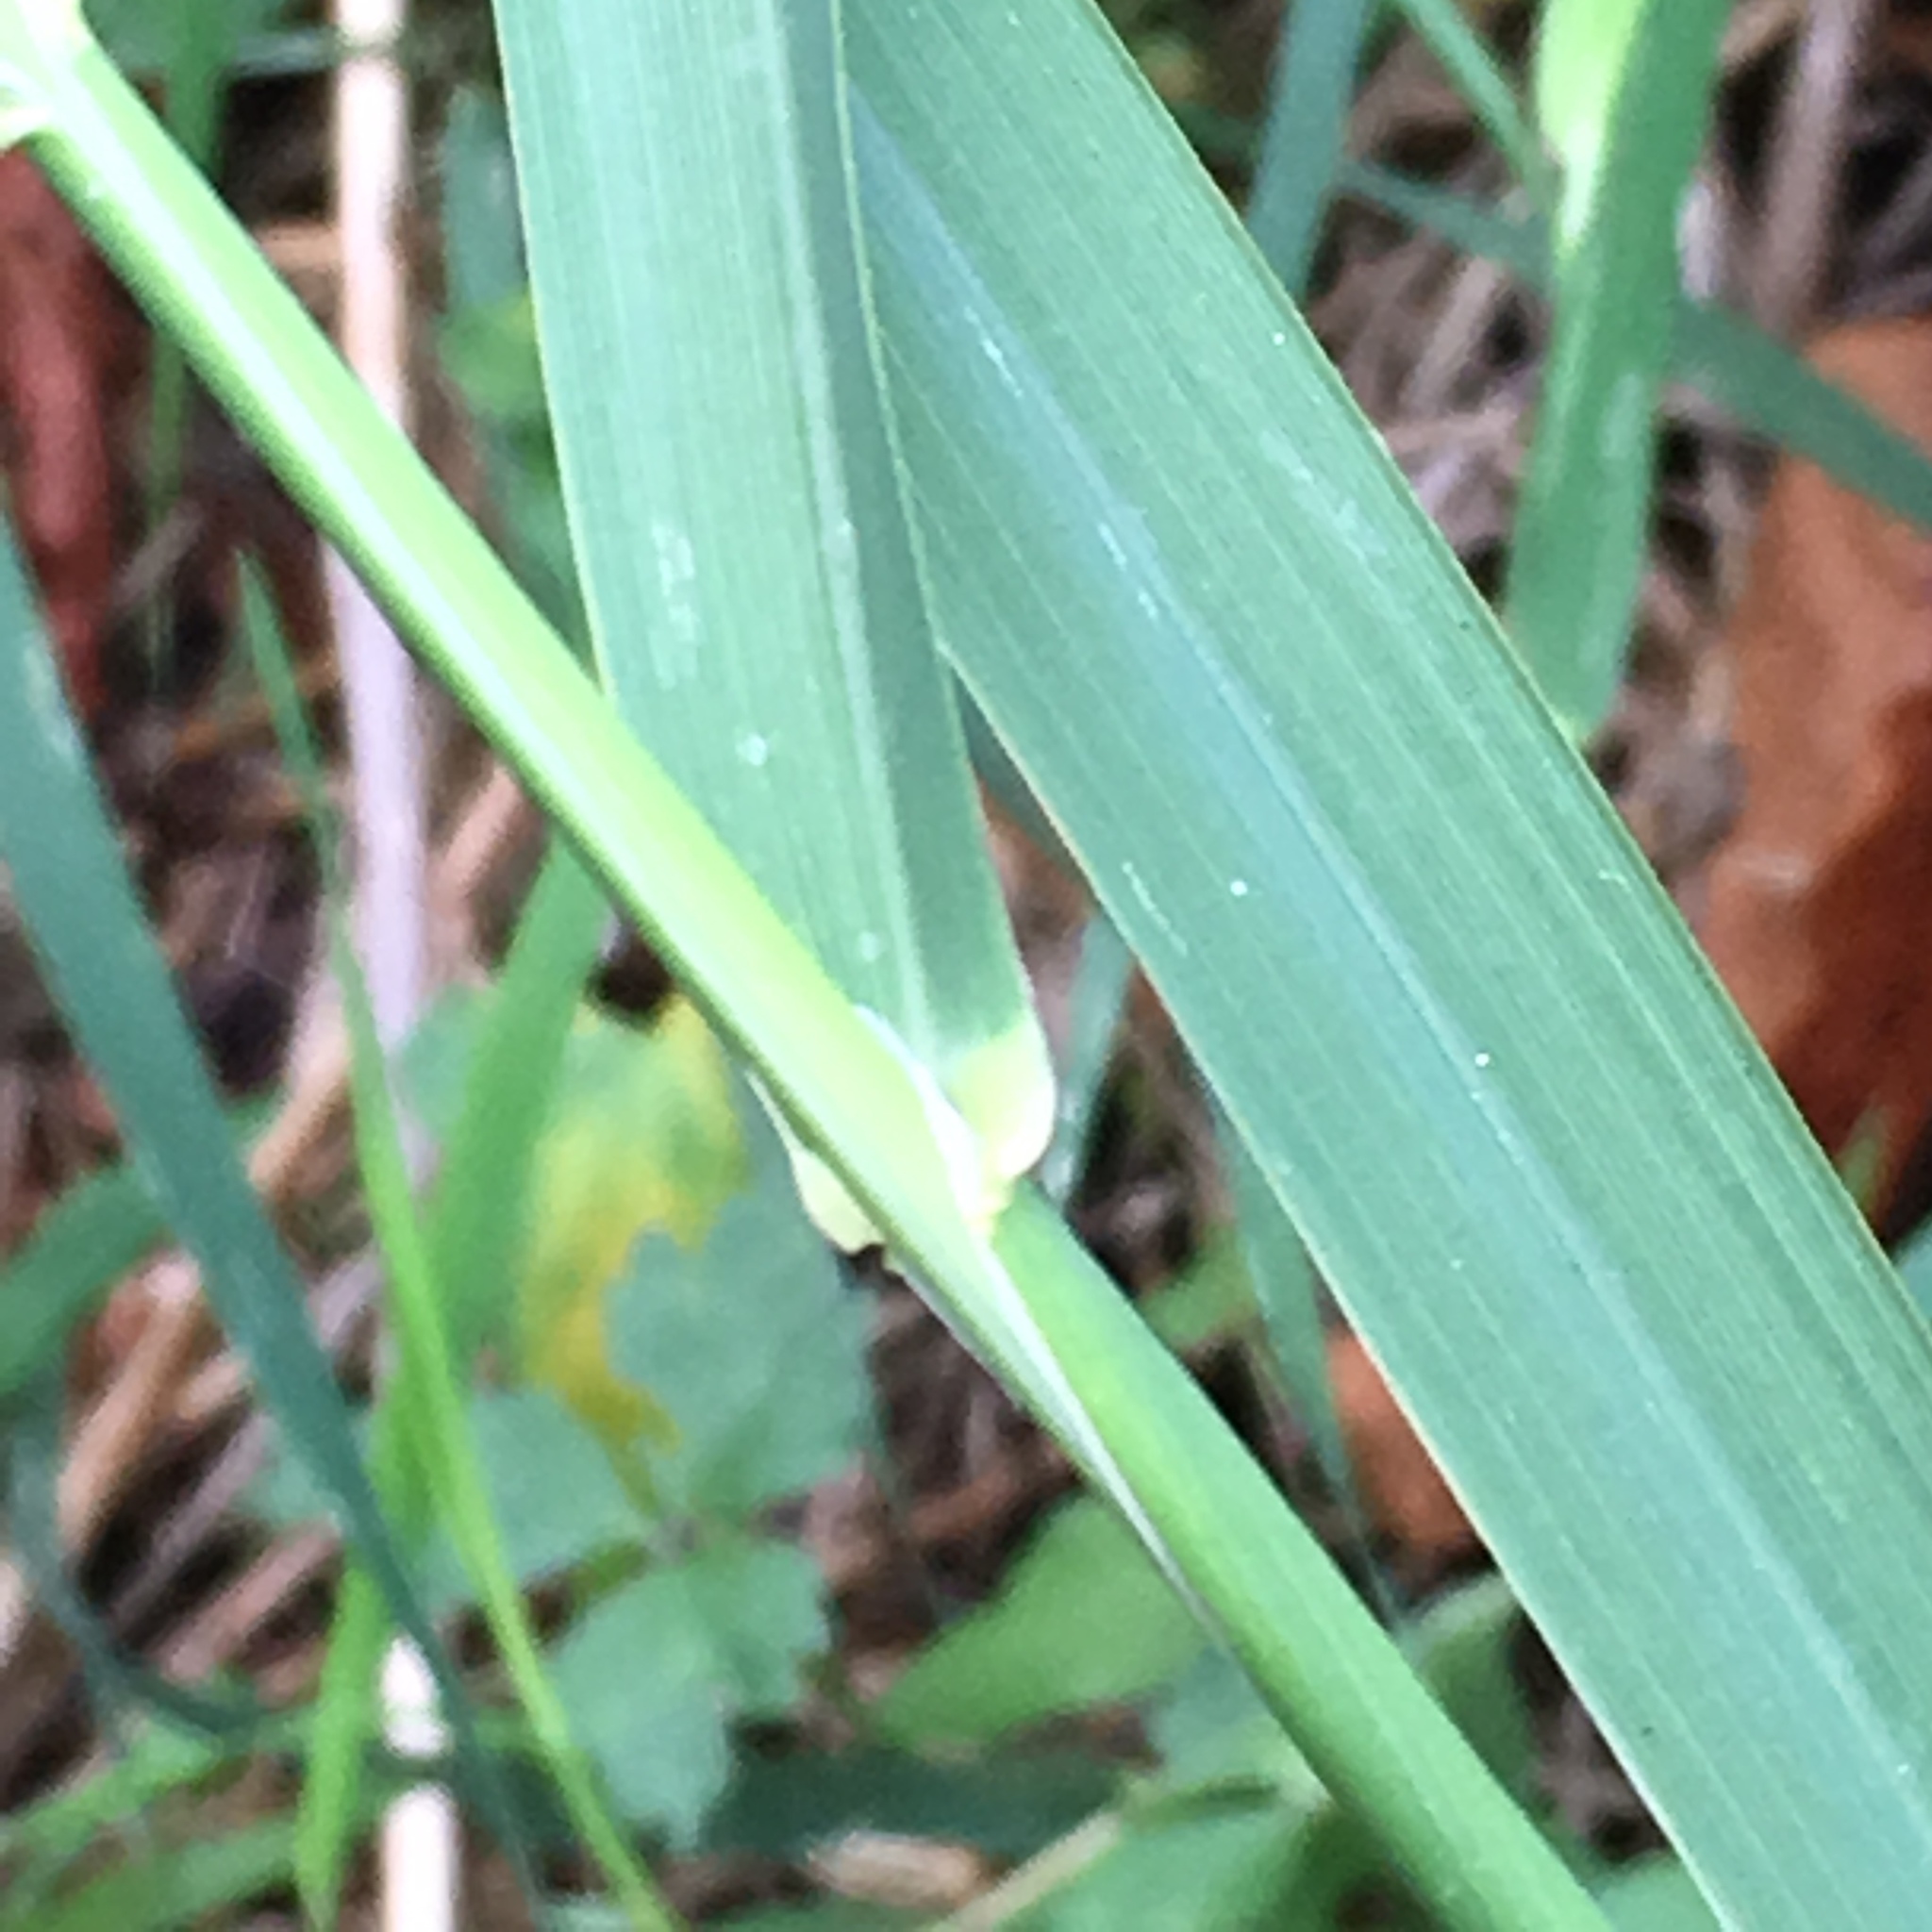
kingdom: Plantae
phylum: Tracheophyta
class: Liliopsida
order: Poales
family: Poaceae
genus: Phalaris
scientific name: Phalaris arundinacea
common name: Reed canary-grass
